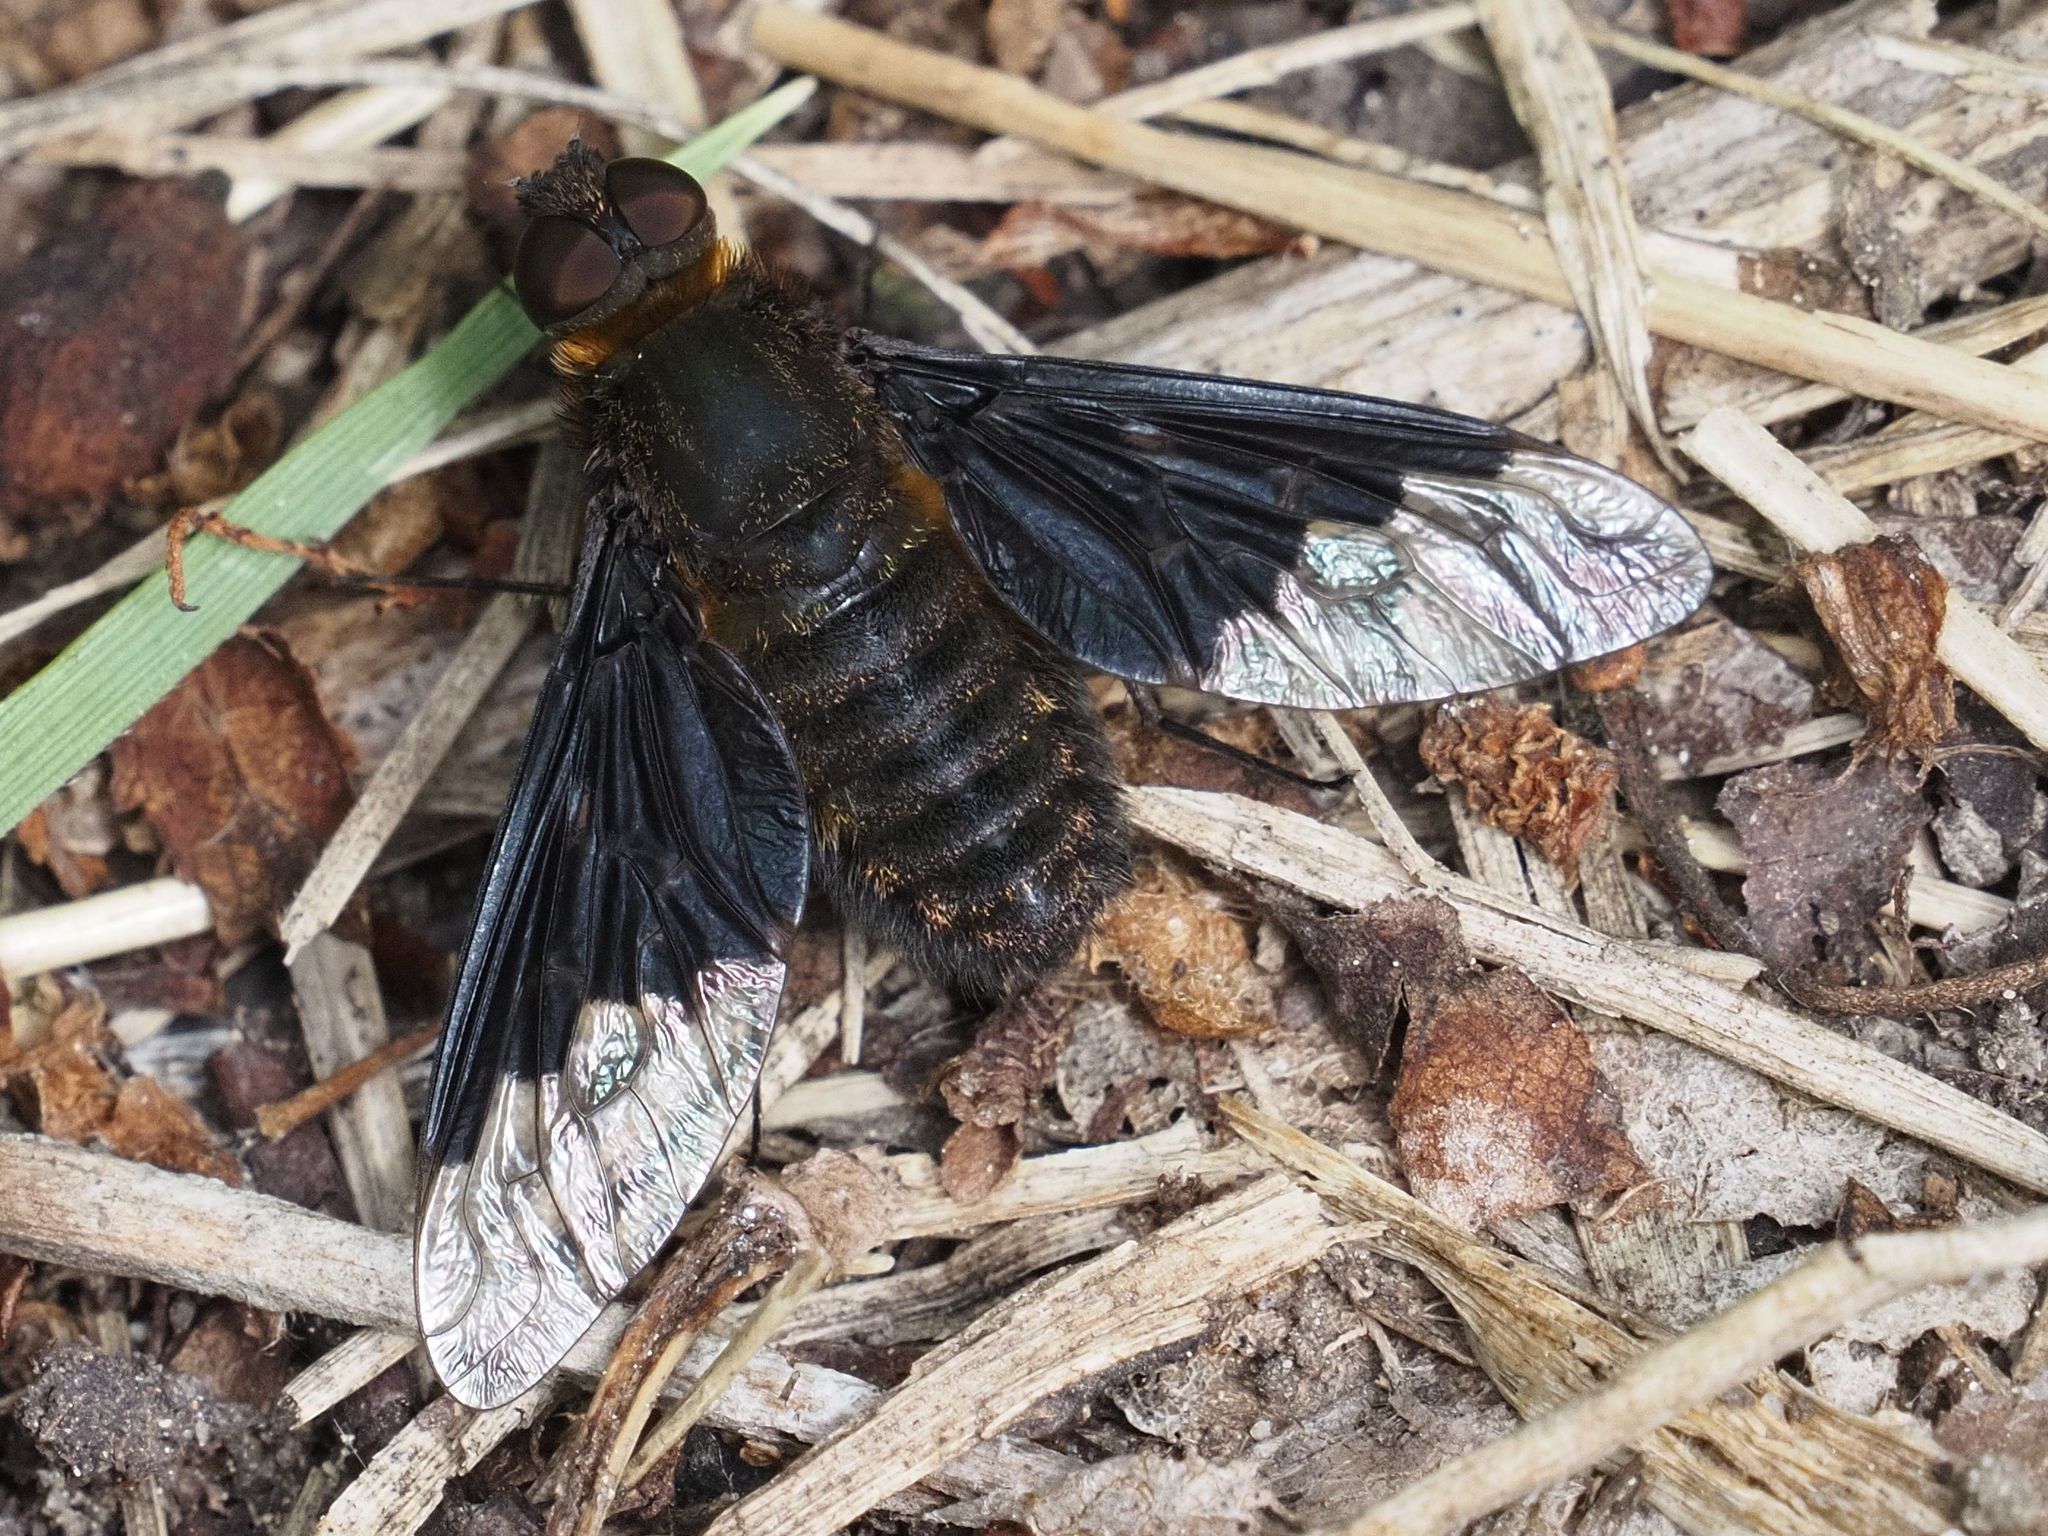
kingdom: Animalia
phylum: Arthropoda
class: Insecta
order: Diptera
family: Bombyliidae
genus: Hemipenthes
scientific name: Hemipenthes morio
